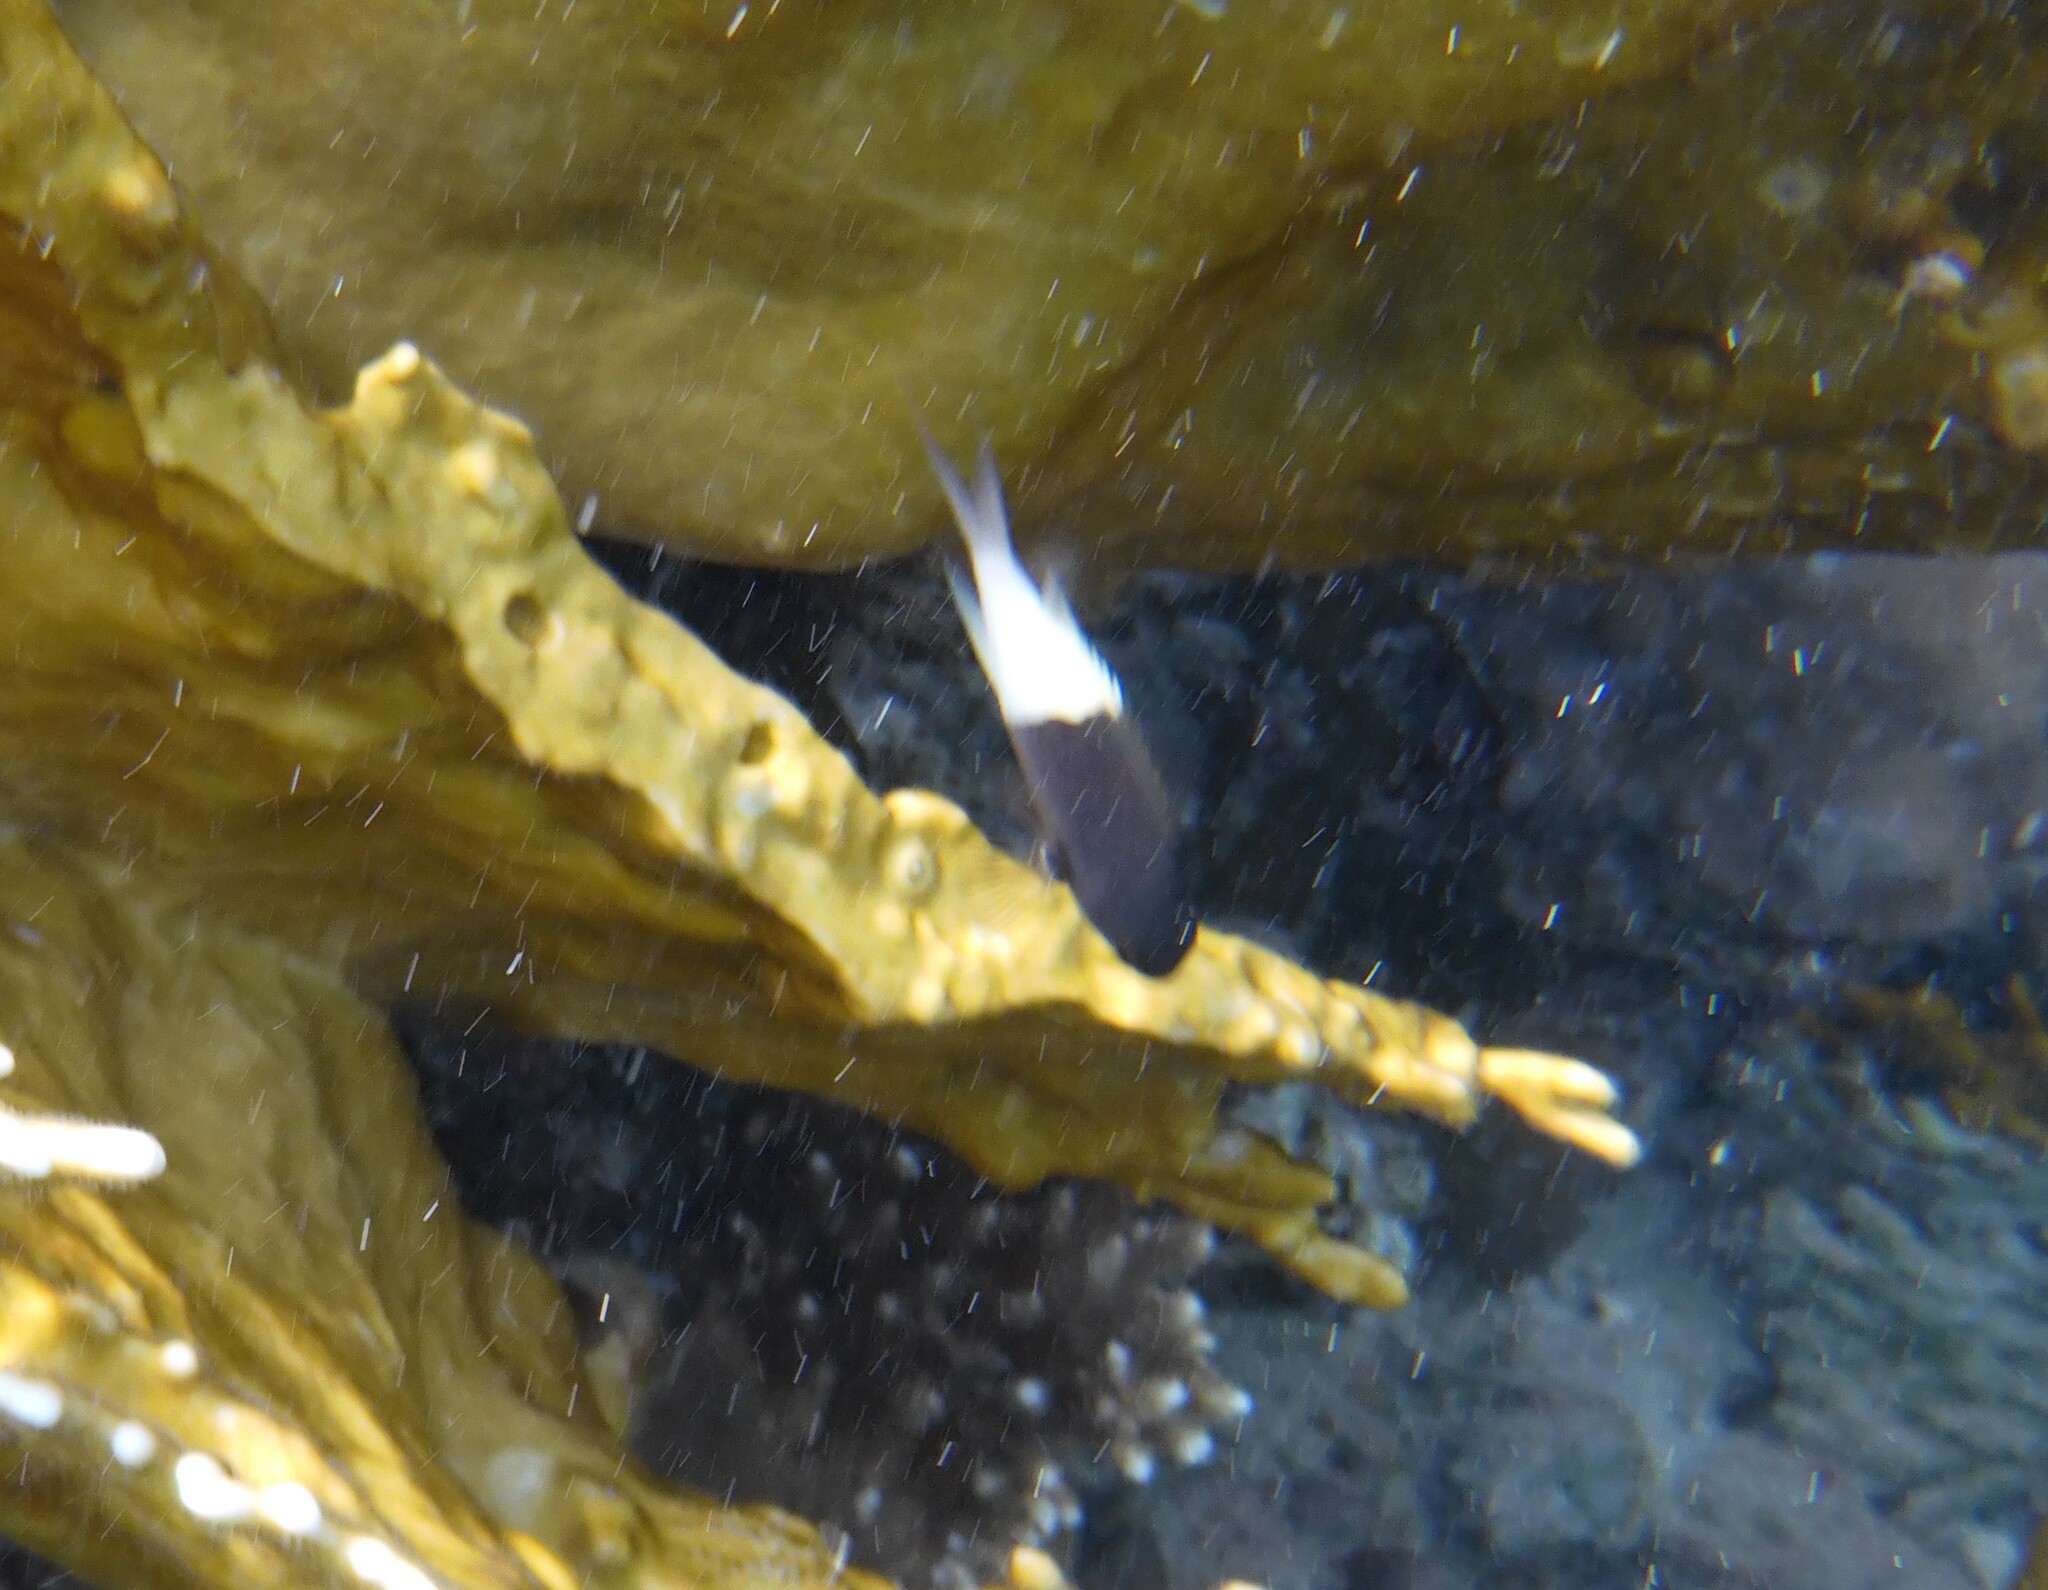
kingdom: Animalia
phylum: Chordata
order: Perciformes
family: Pomacentridae
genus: Chromis
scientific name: Chromis dimidiata
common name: Half-and-half chromis
